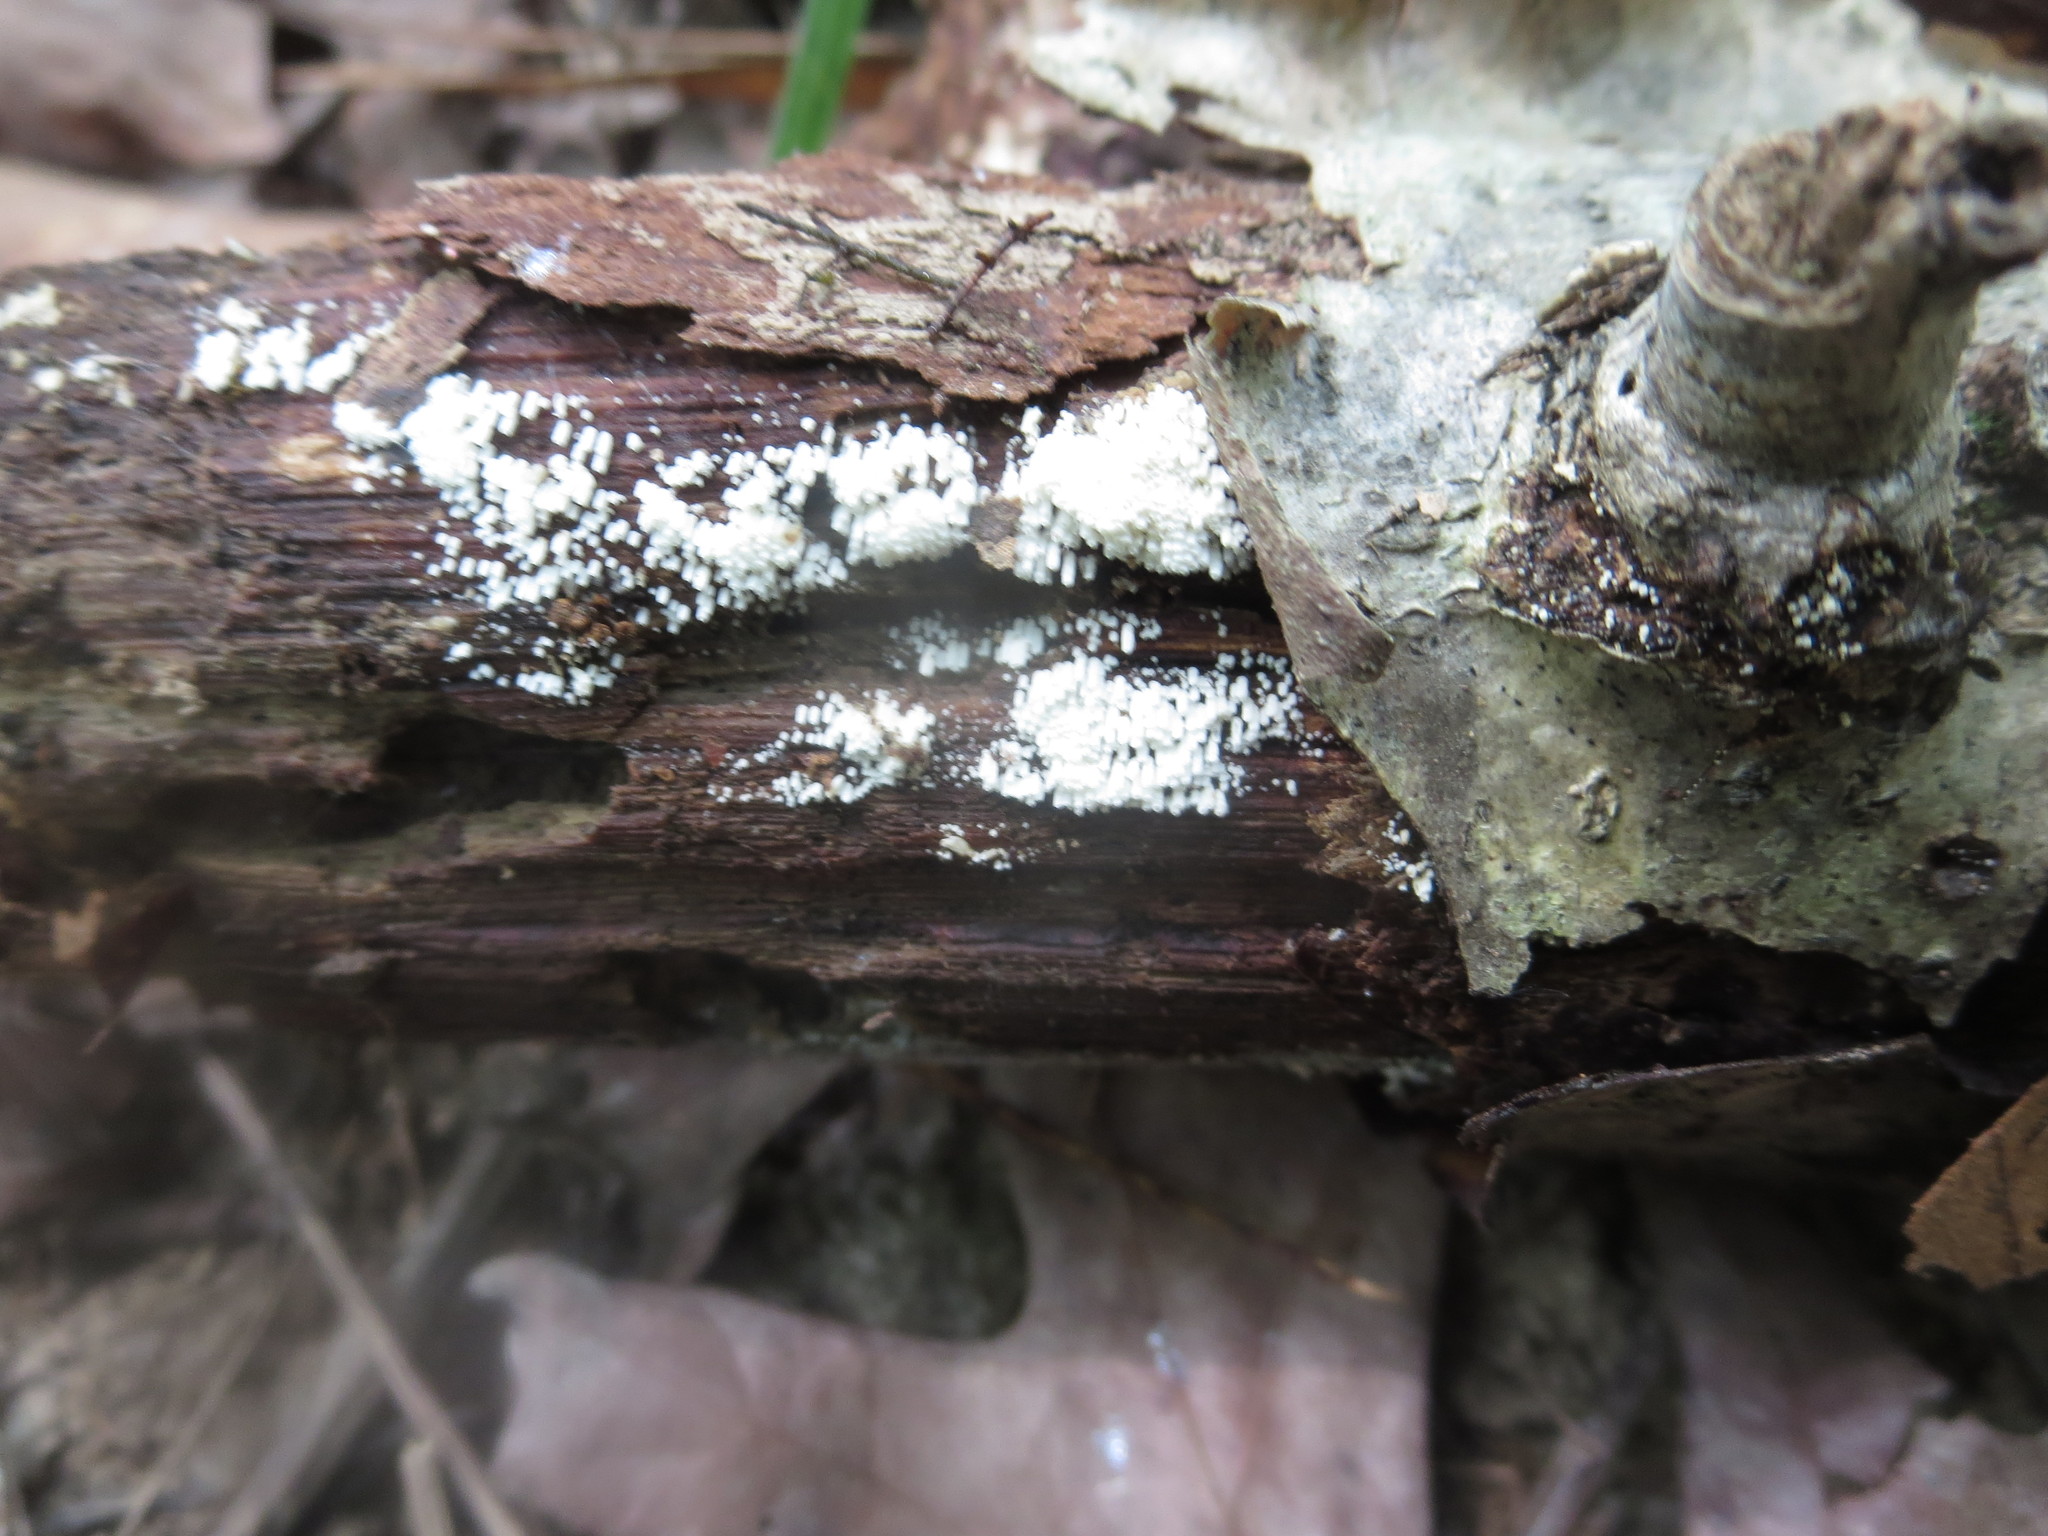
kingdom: Fungi
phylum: Basidiomycota
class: Agaricomycetes
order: Agaricales
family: Marasmiaceae
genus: Henningsomyces
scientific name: Henningsomyces candidus
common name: White tubelet
